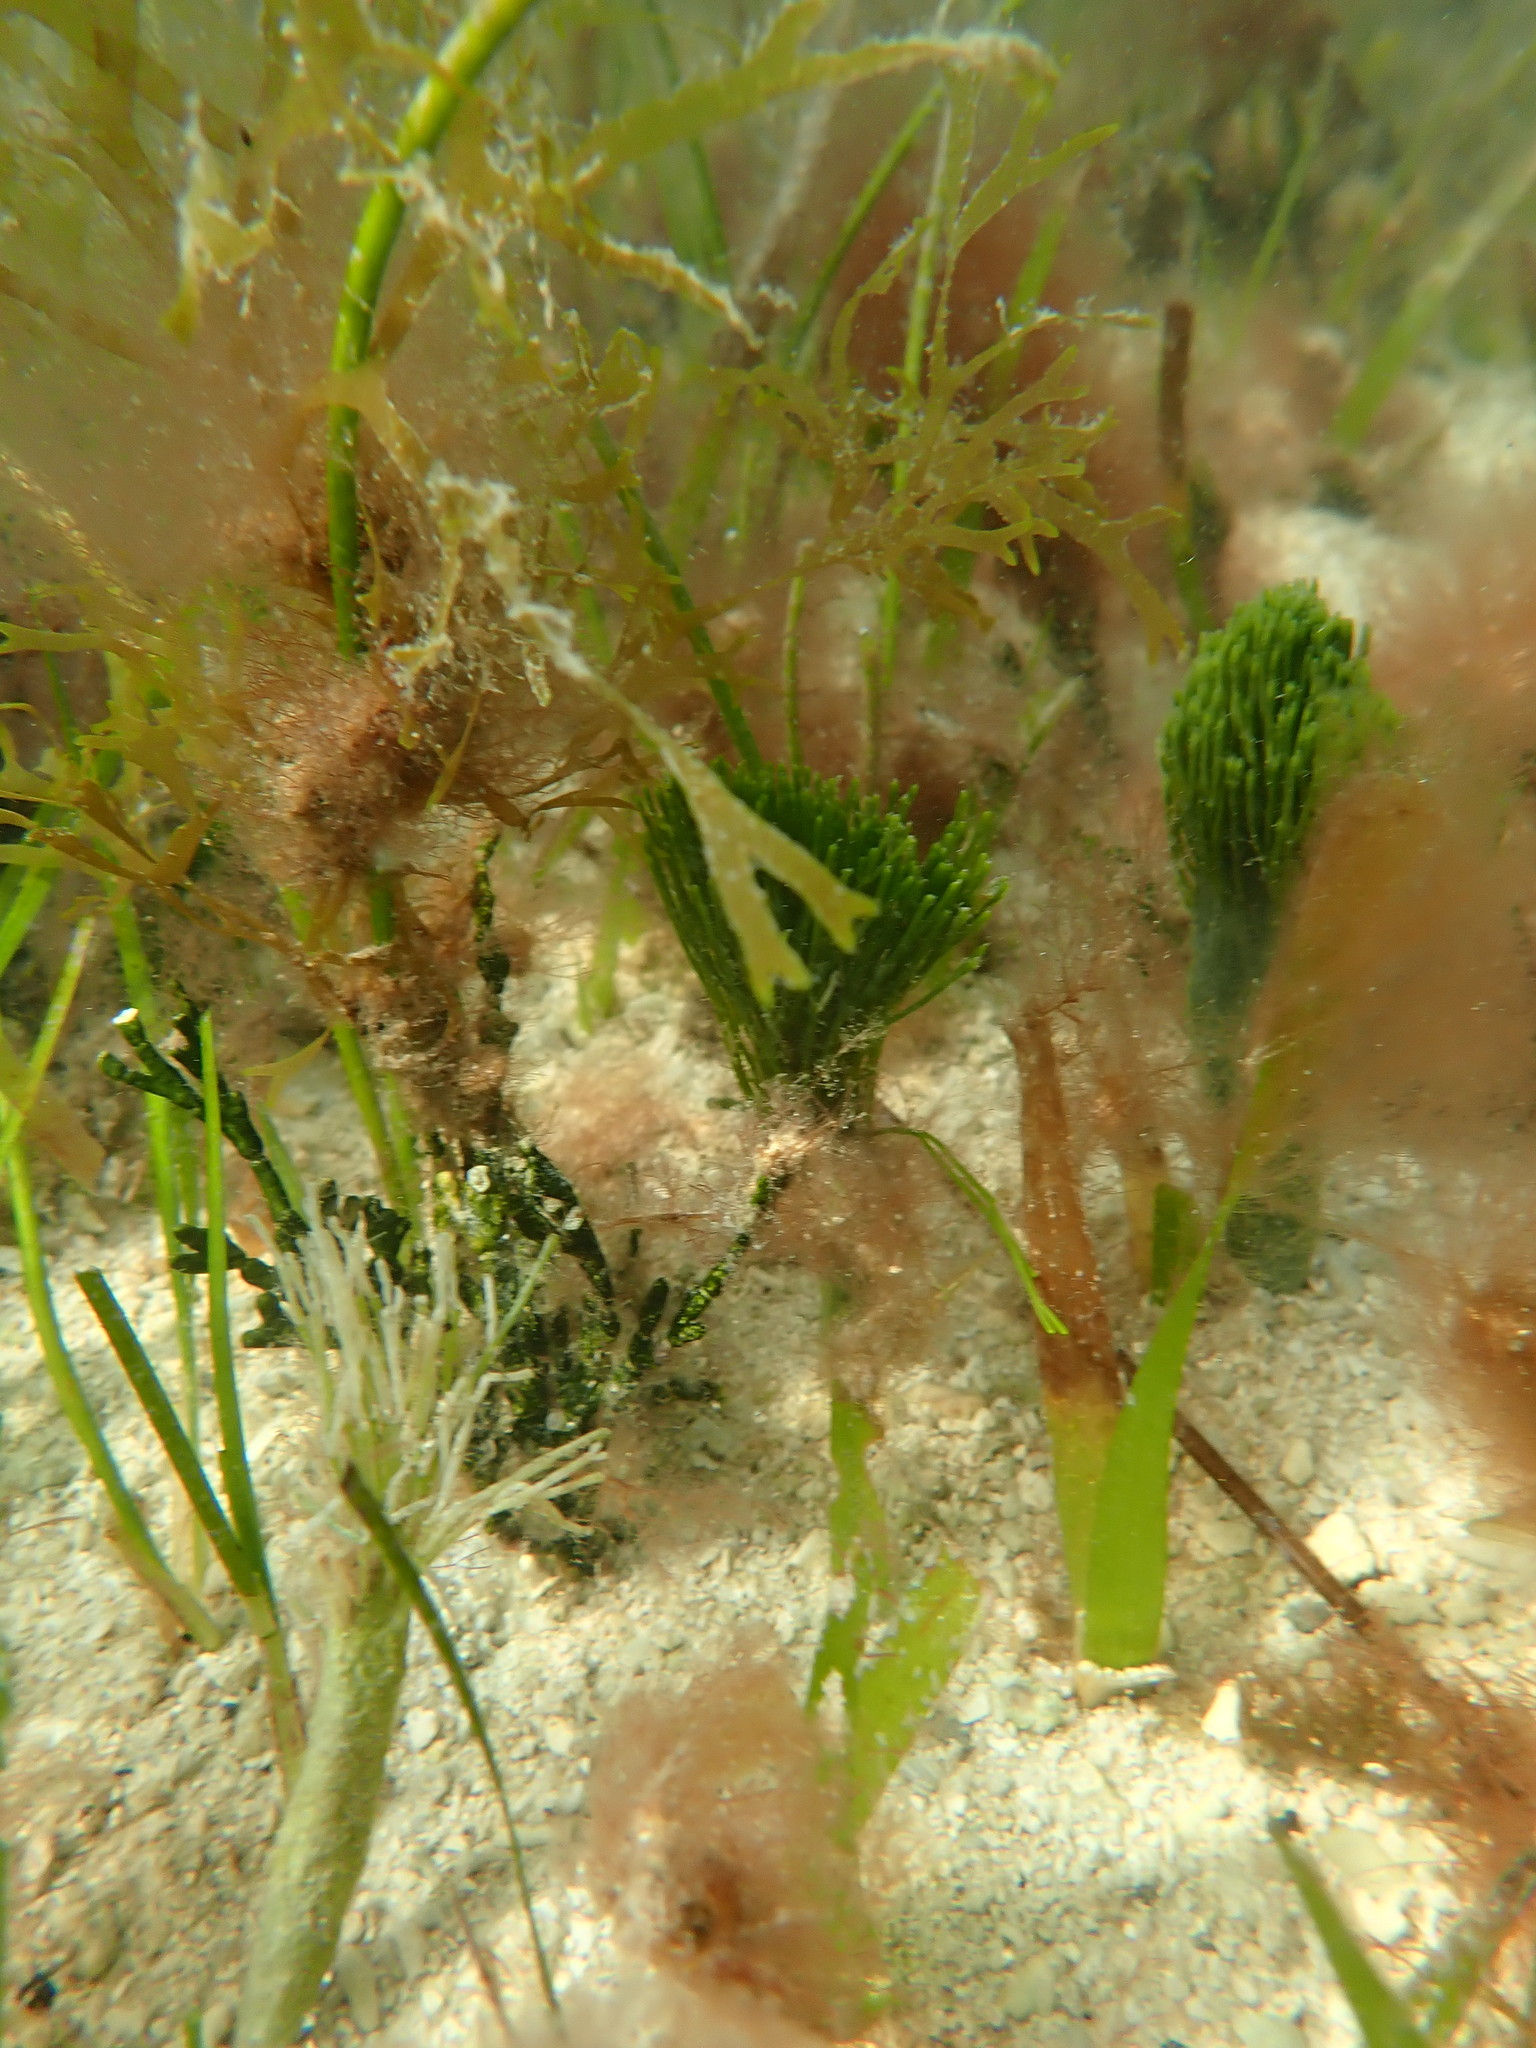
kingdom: Plantae
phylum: Chlorophyta
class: Ulvophyceae
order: Bryopsidales
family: Udoteaceae
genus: Penicillus
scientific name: Penicillus dumetosus
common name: Bristle ball bush
